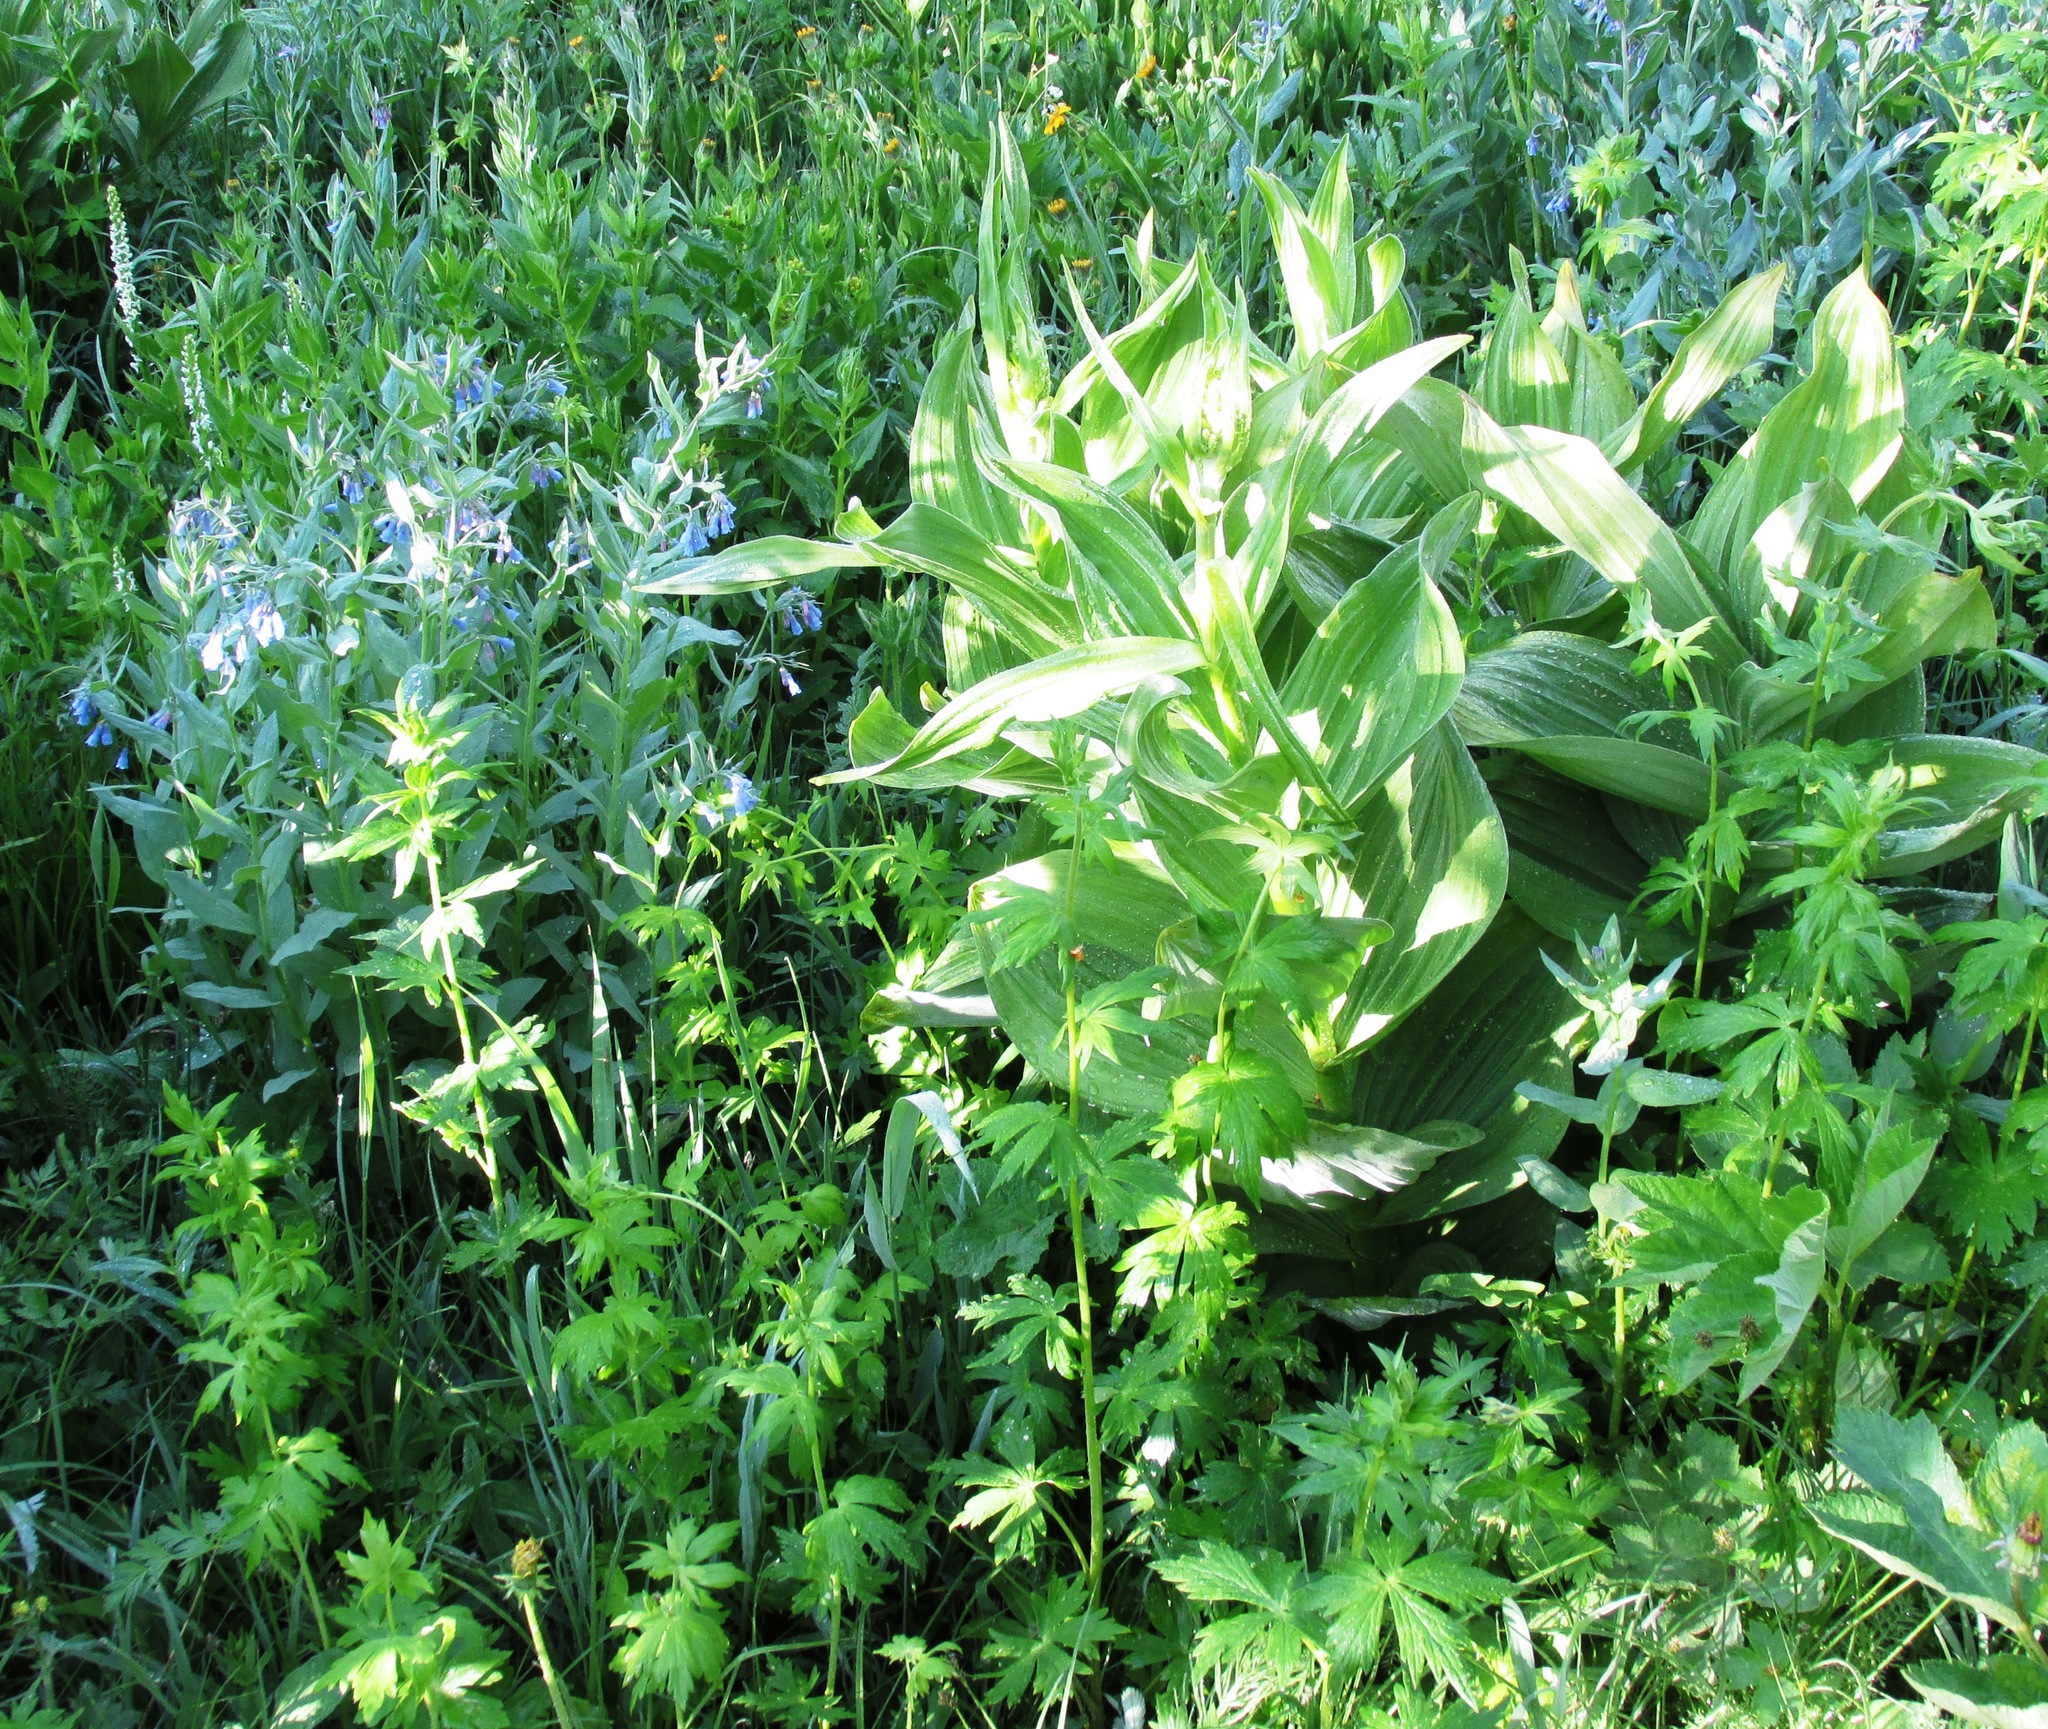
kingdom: Plantae
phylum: Tracheophyta
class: Magnoliopsida
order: Boraginales
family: Boraginaceae
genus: Mertensia
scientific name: Mertensia ciliata
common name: Tall chiming-bells
